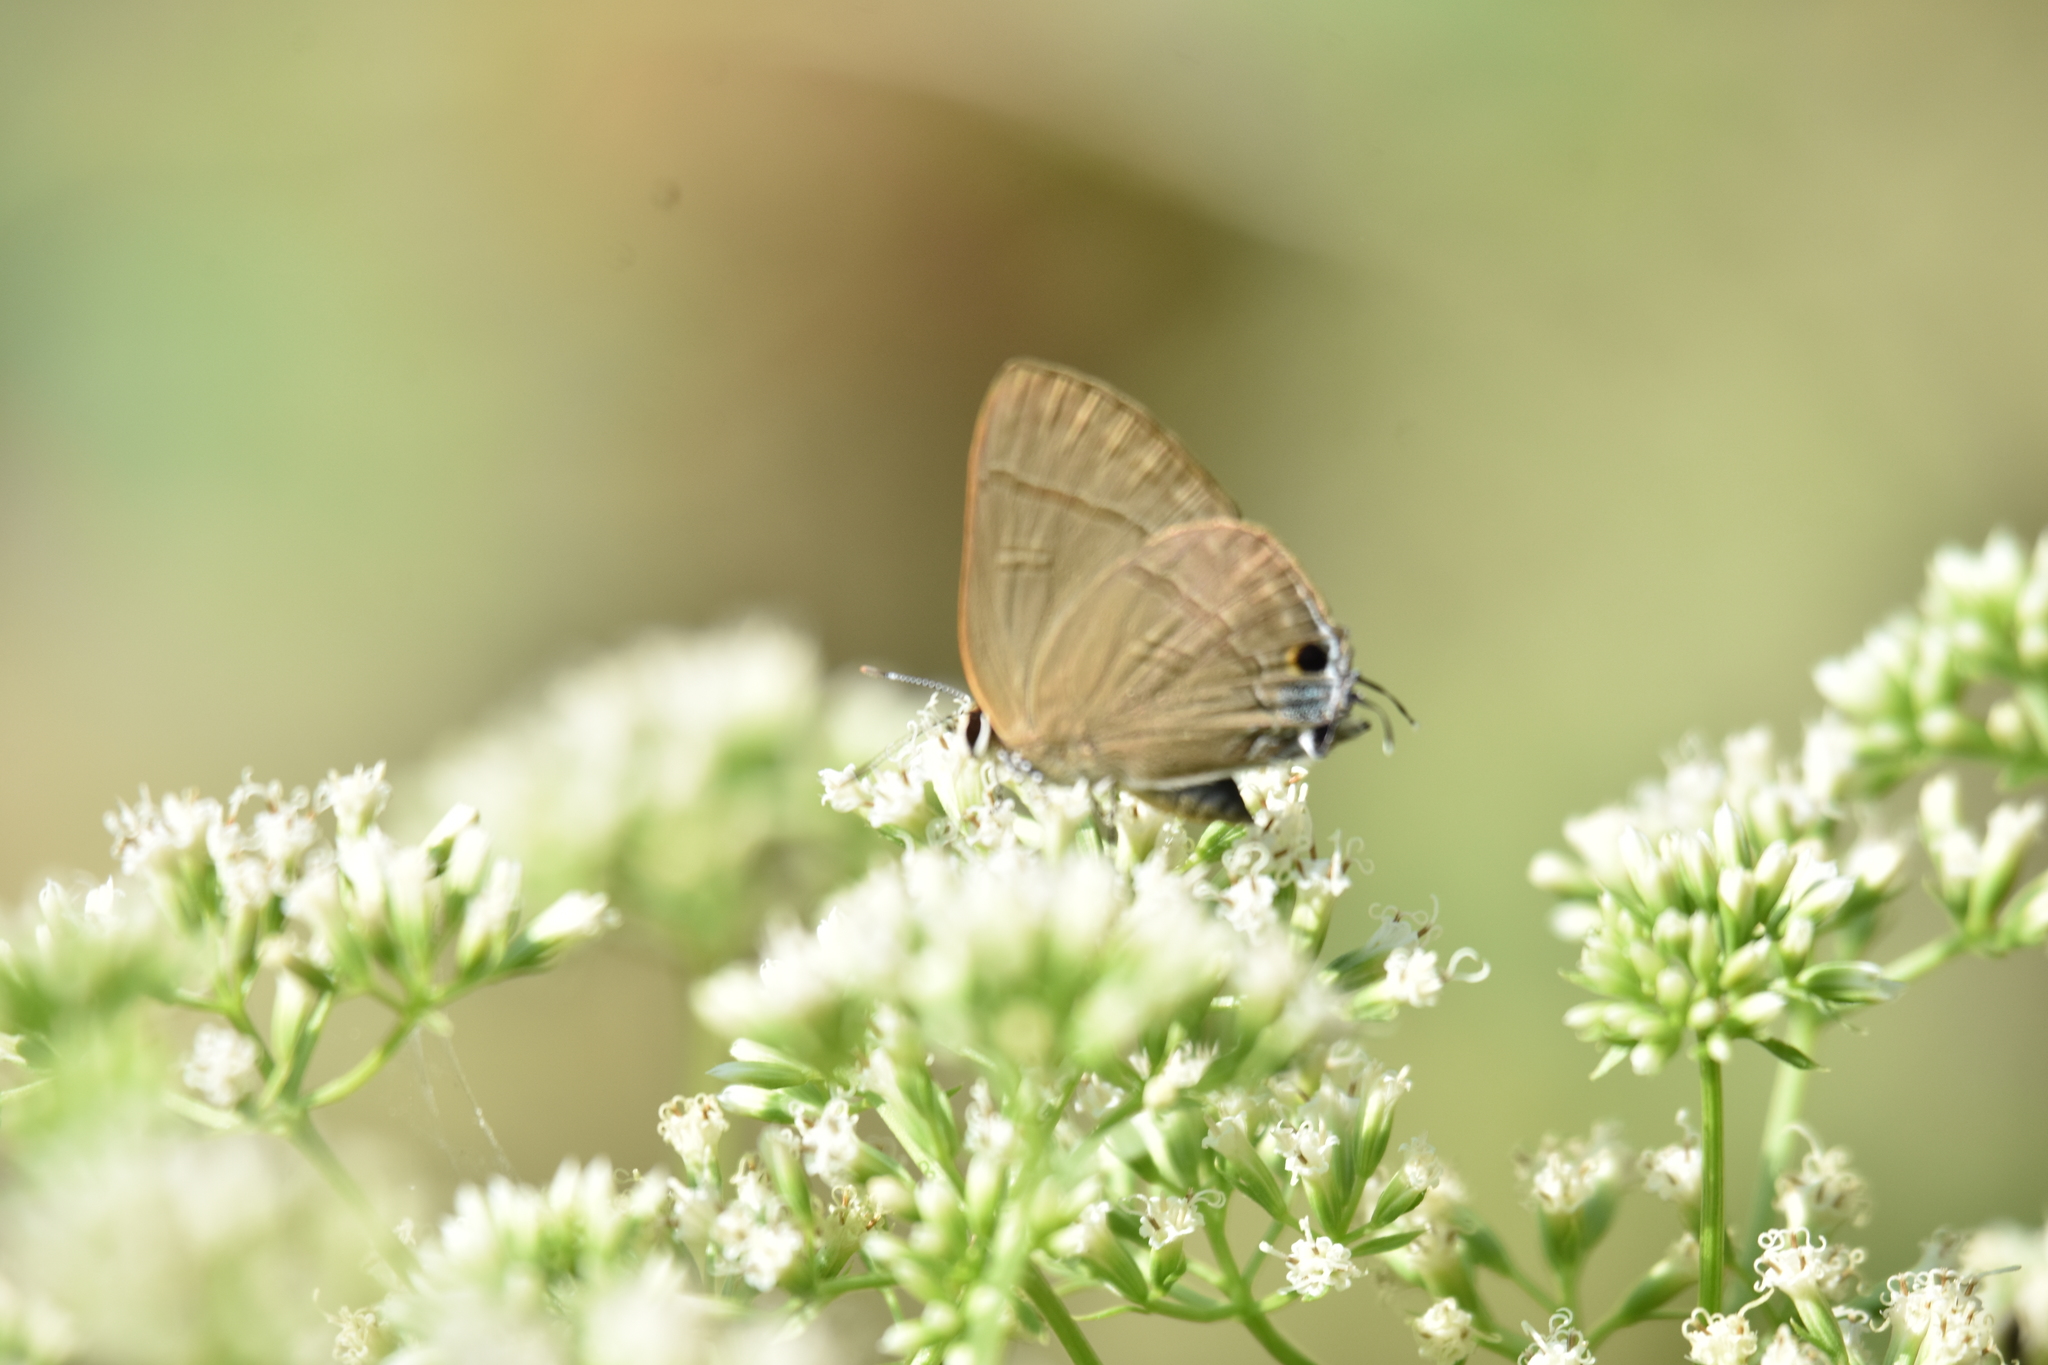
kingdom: Animalia
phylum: Arthropoda
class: Insecta
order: Lepidoptera
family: Lycaenidae
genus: Rapala
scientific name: Rapala manea
